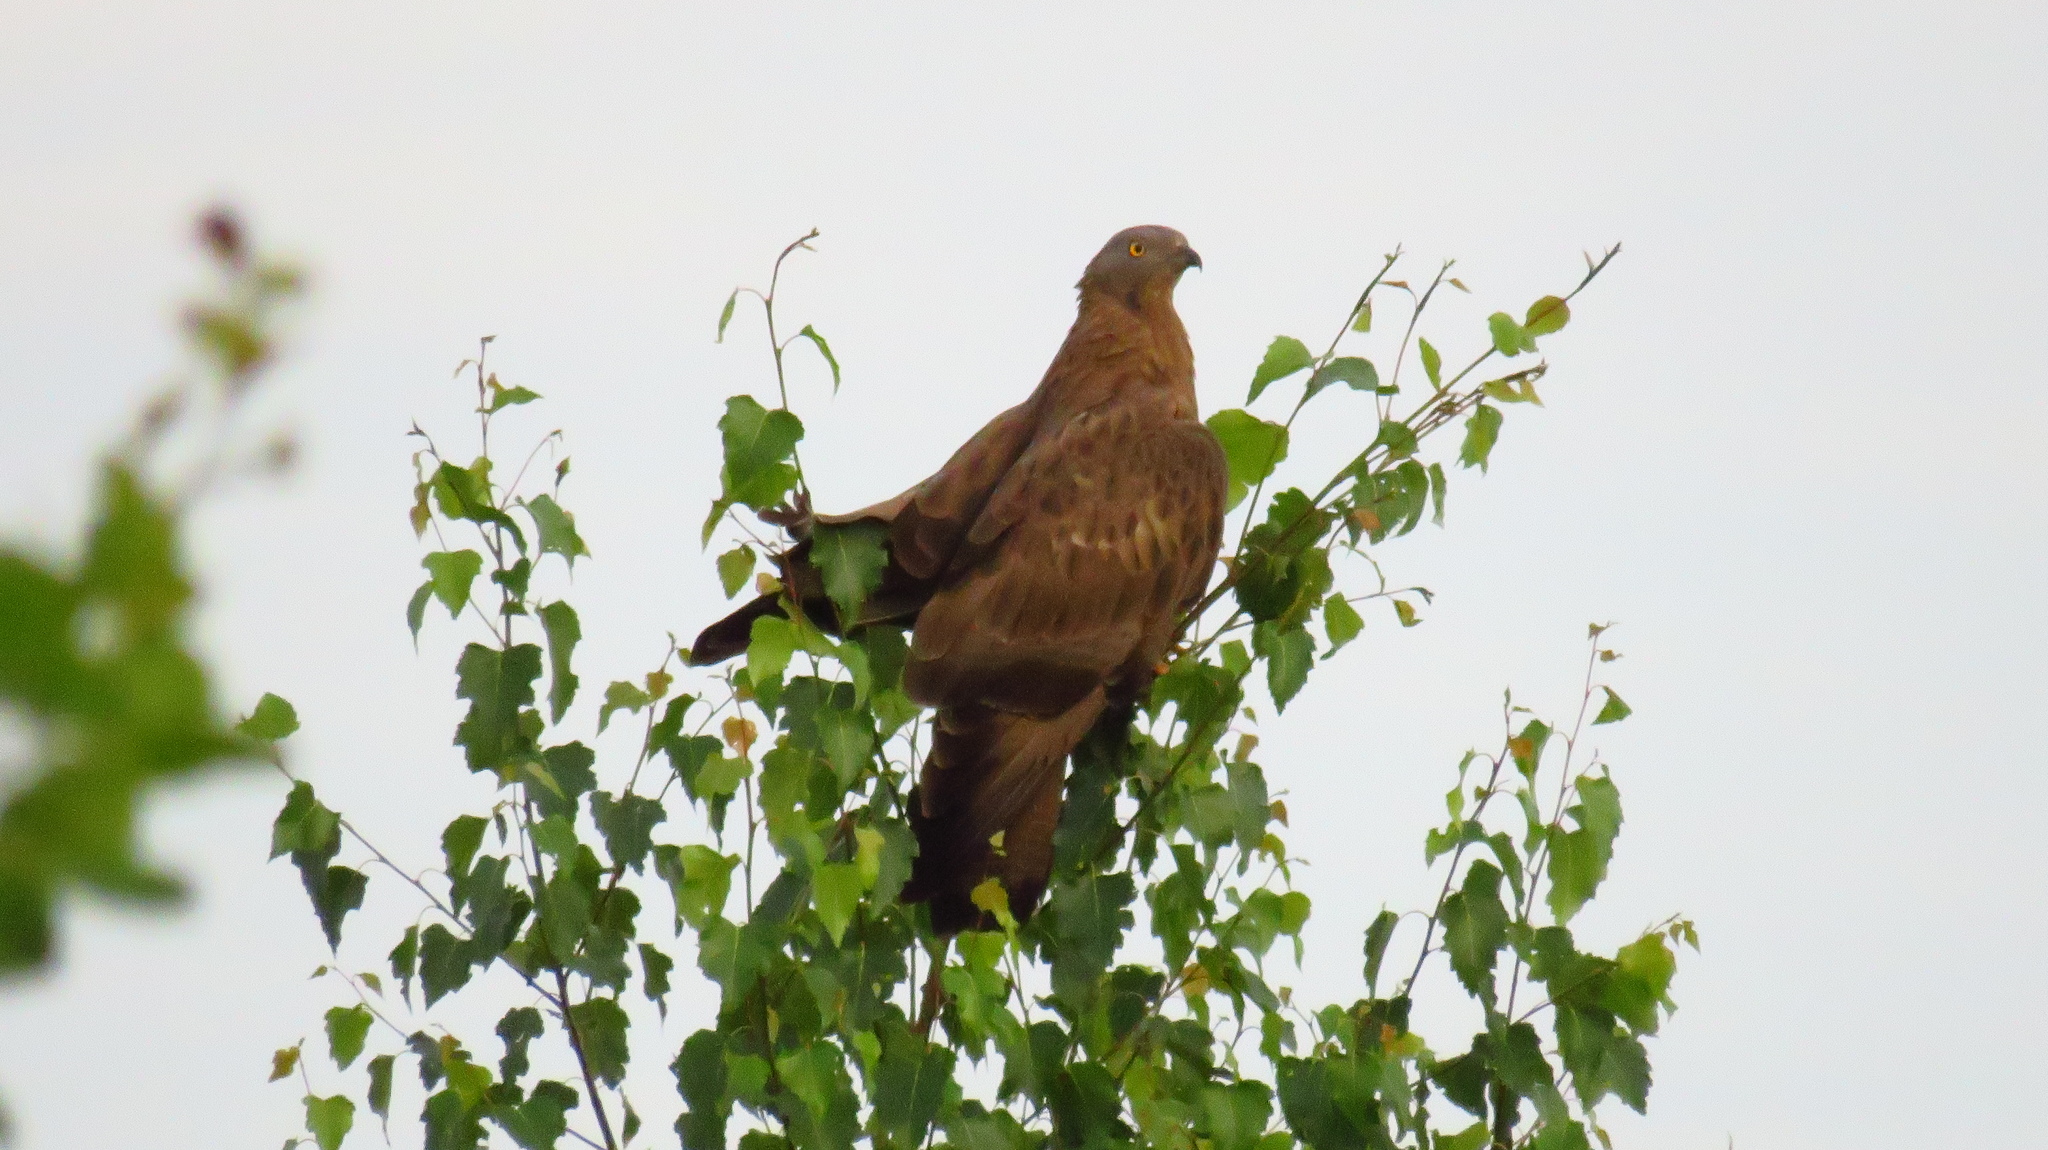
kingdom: Animalia
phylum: Chordata
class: Aves
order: Accipitriformes
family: Accipitridae
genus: Pernis
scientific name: Pernis apivorus
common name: European honey buzzard
